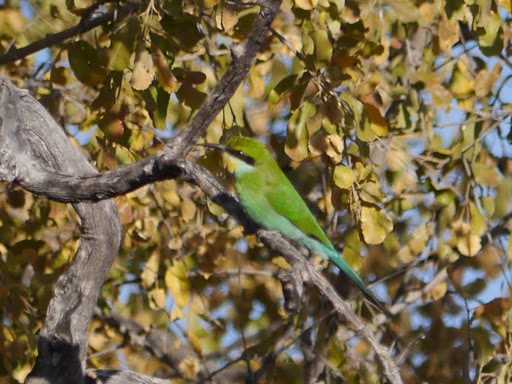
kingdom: Animalia
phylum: Chordata
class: Aves
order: Coraciiformes
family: Meropidae
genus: Merops
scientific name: Merops hirundineus
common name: Swallow-tailed bee-eater
